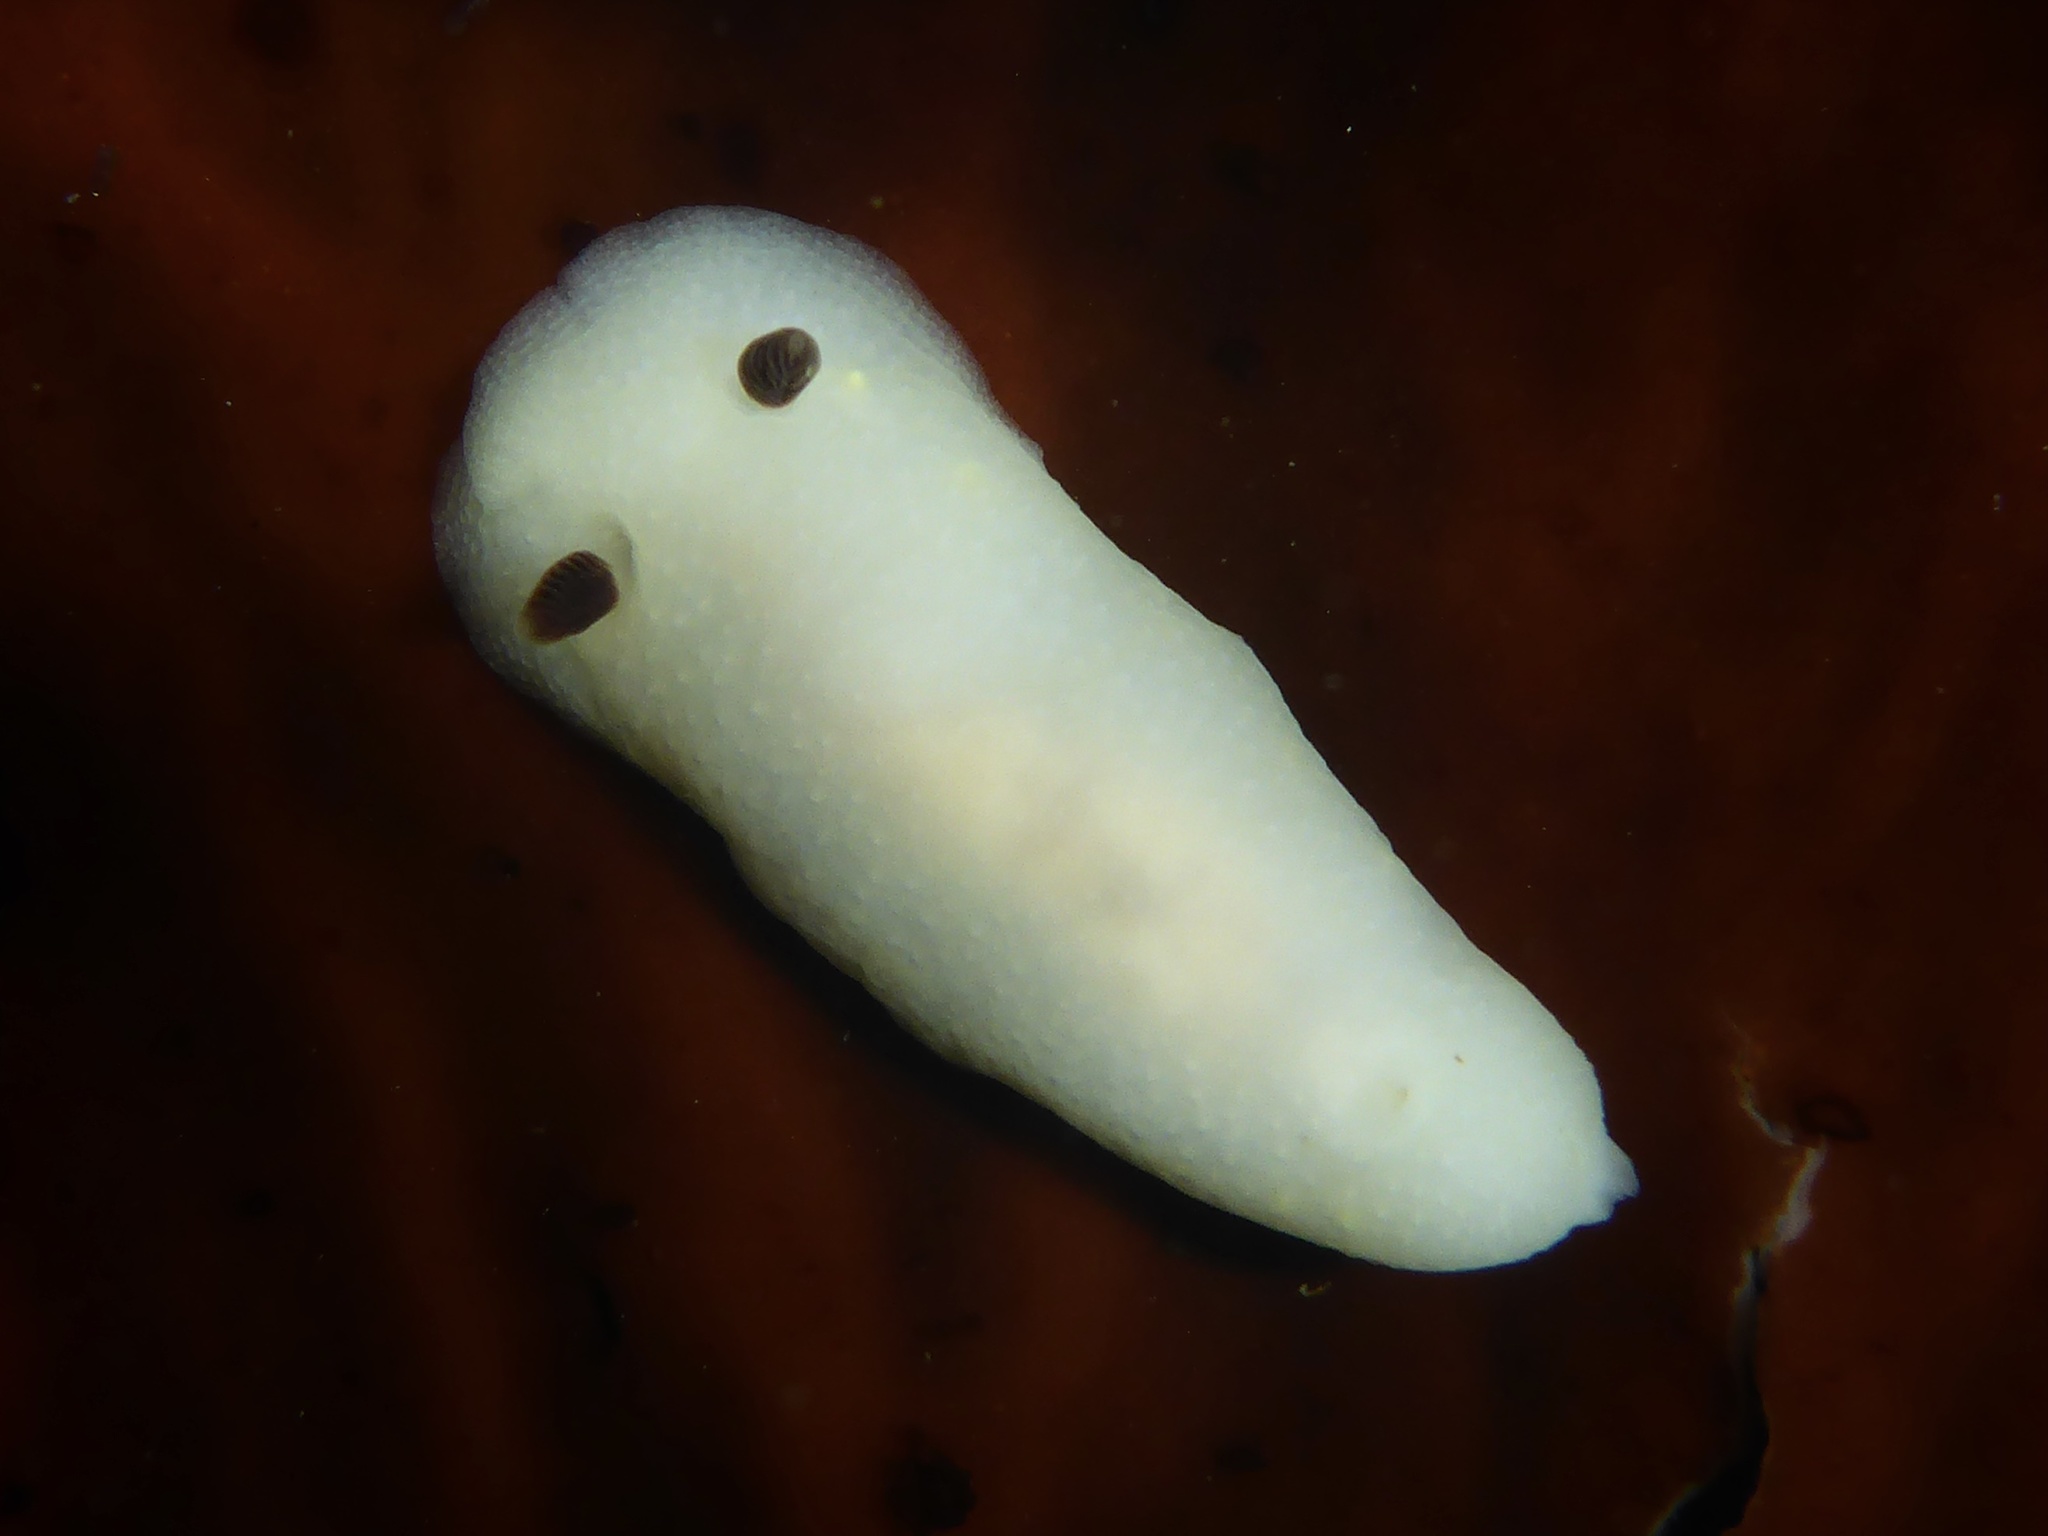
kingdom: Animalia
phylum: Mollusca
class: Gastropoda
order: Nudibranchia
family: Cadlinidae
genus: Cadlina
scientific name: Cadlina flavomaculata
